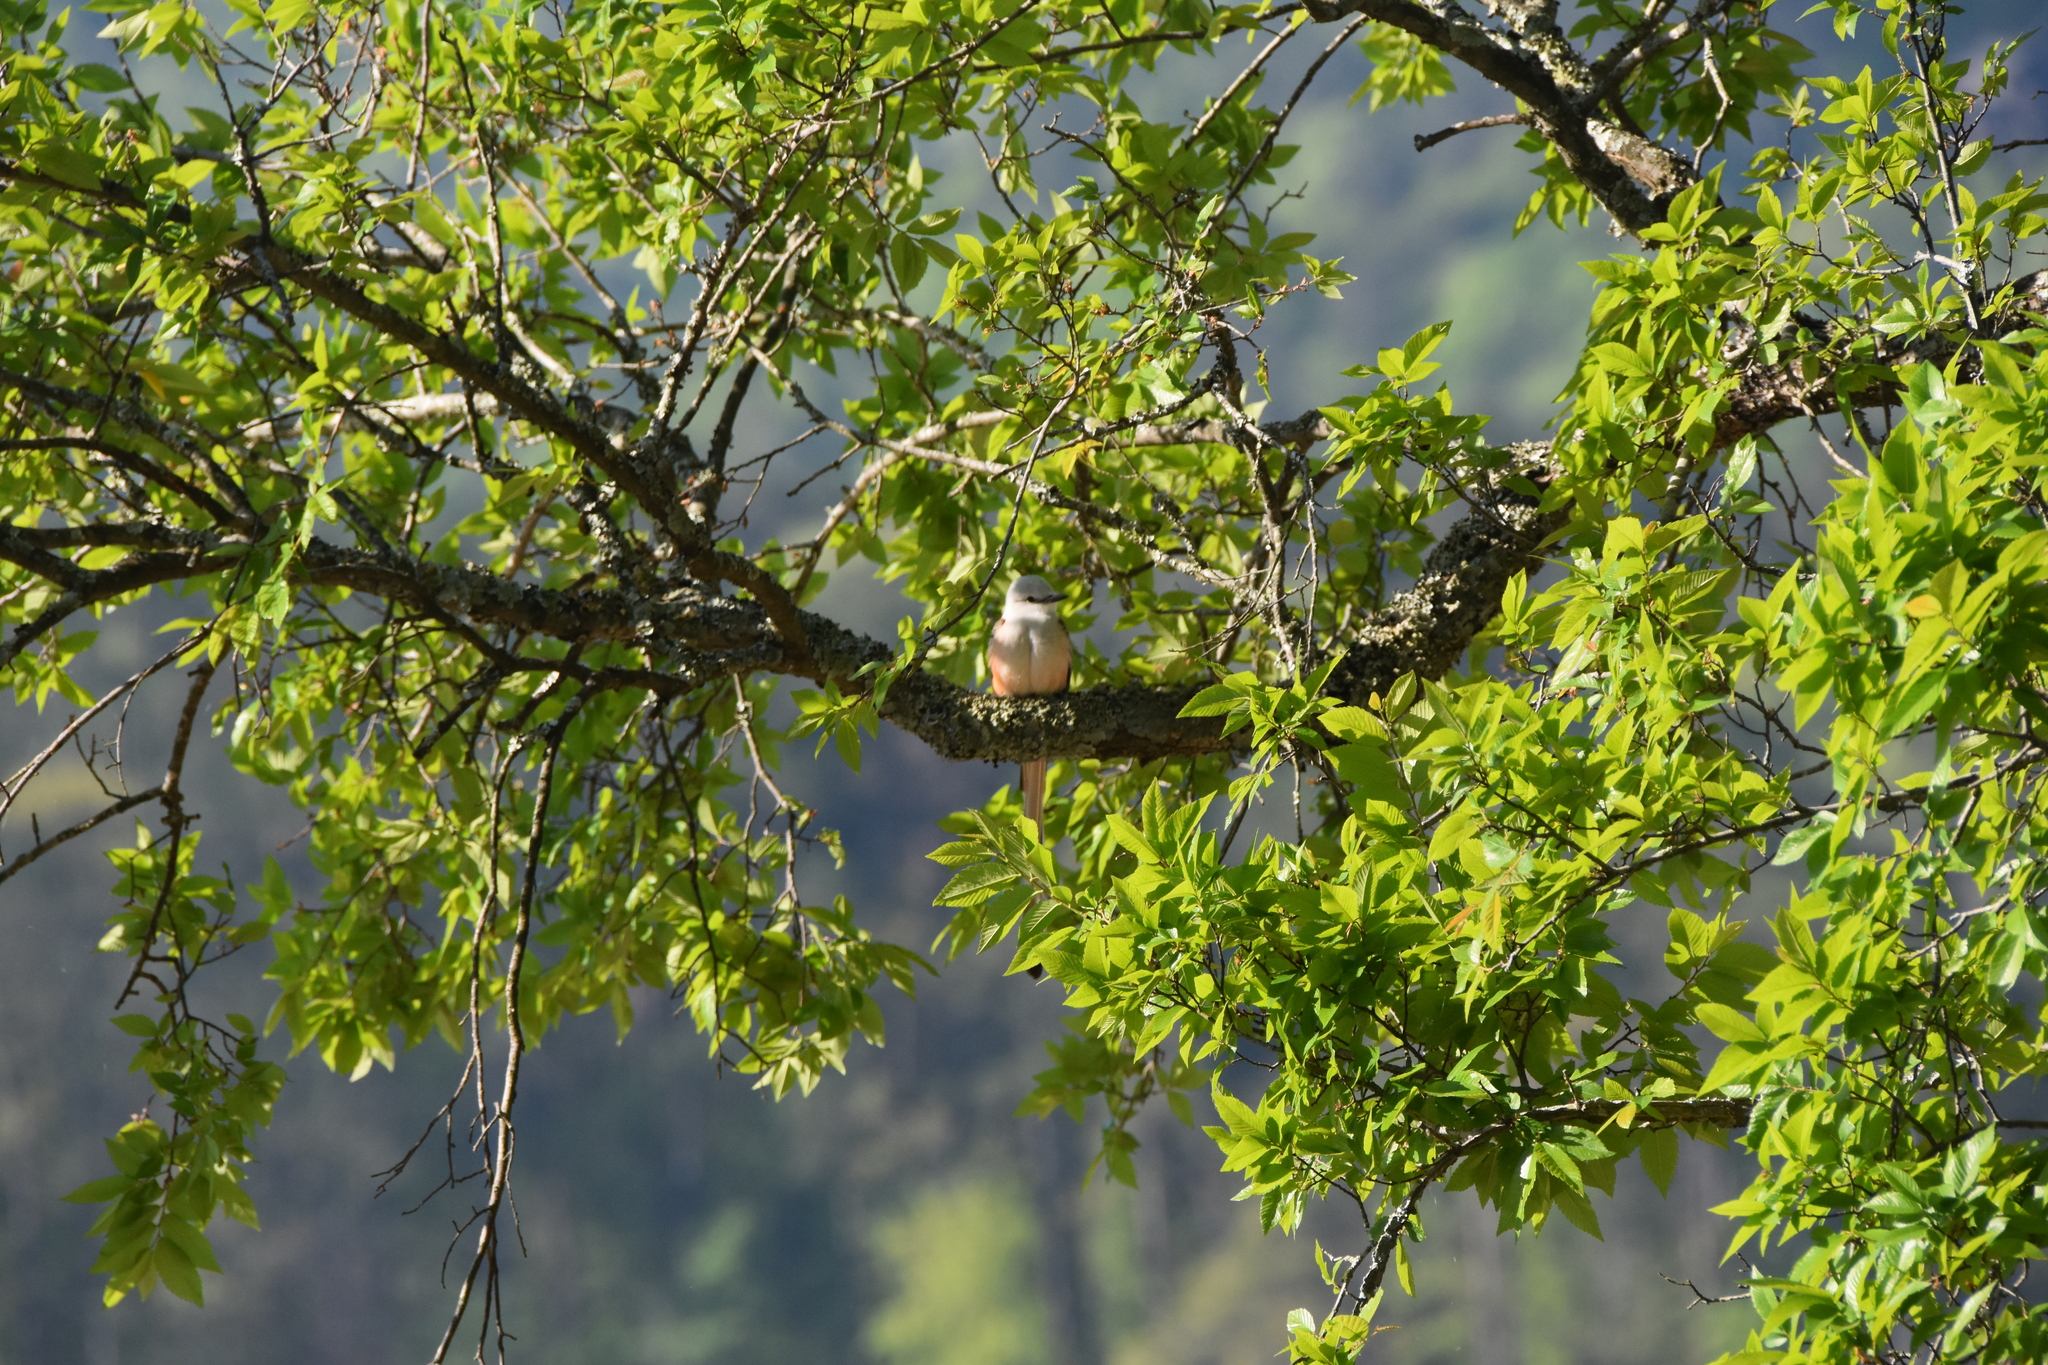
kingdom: Animalia
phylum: Chordata
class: Aves
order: Passeriformes
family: Tyrannidae
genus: Tyrannus
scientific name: Tyrannus forficatus
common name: Scissor-tailed flycatcher
